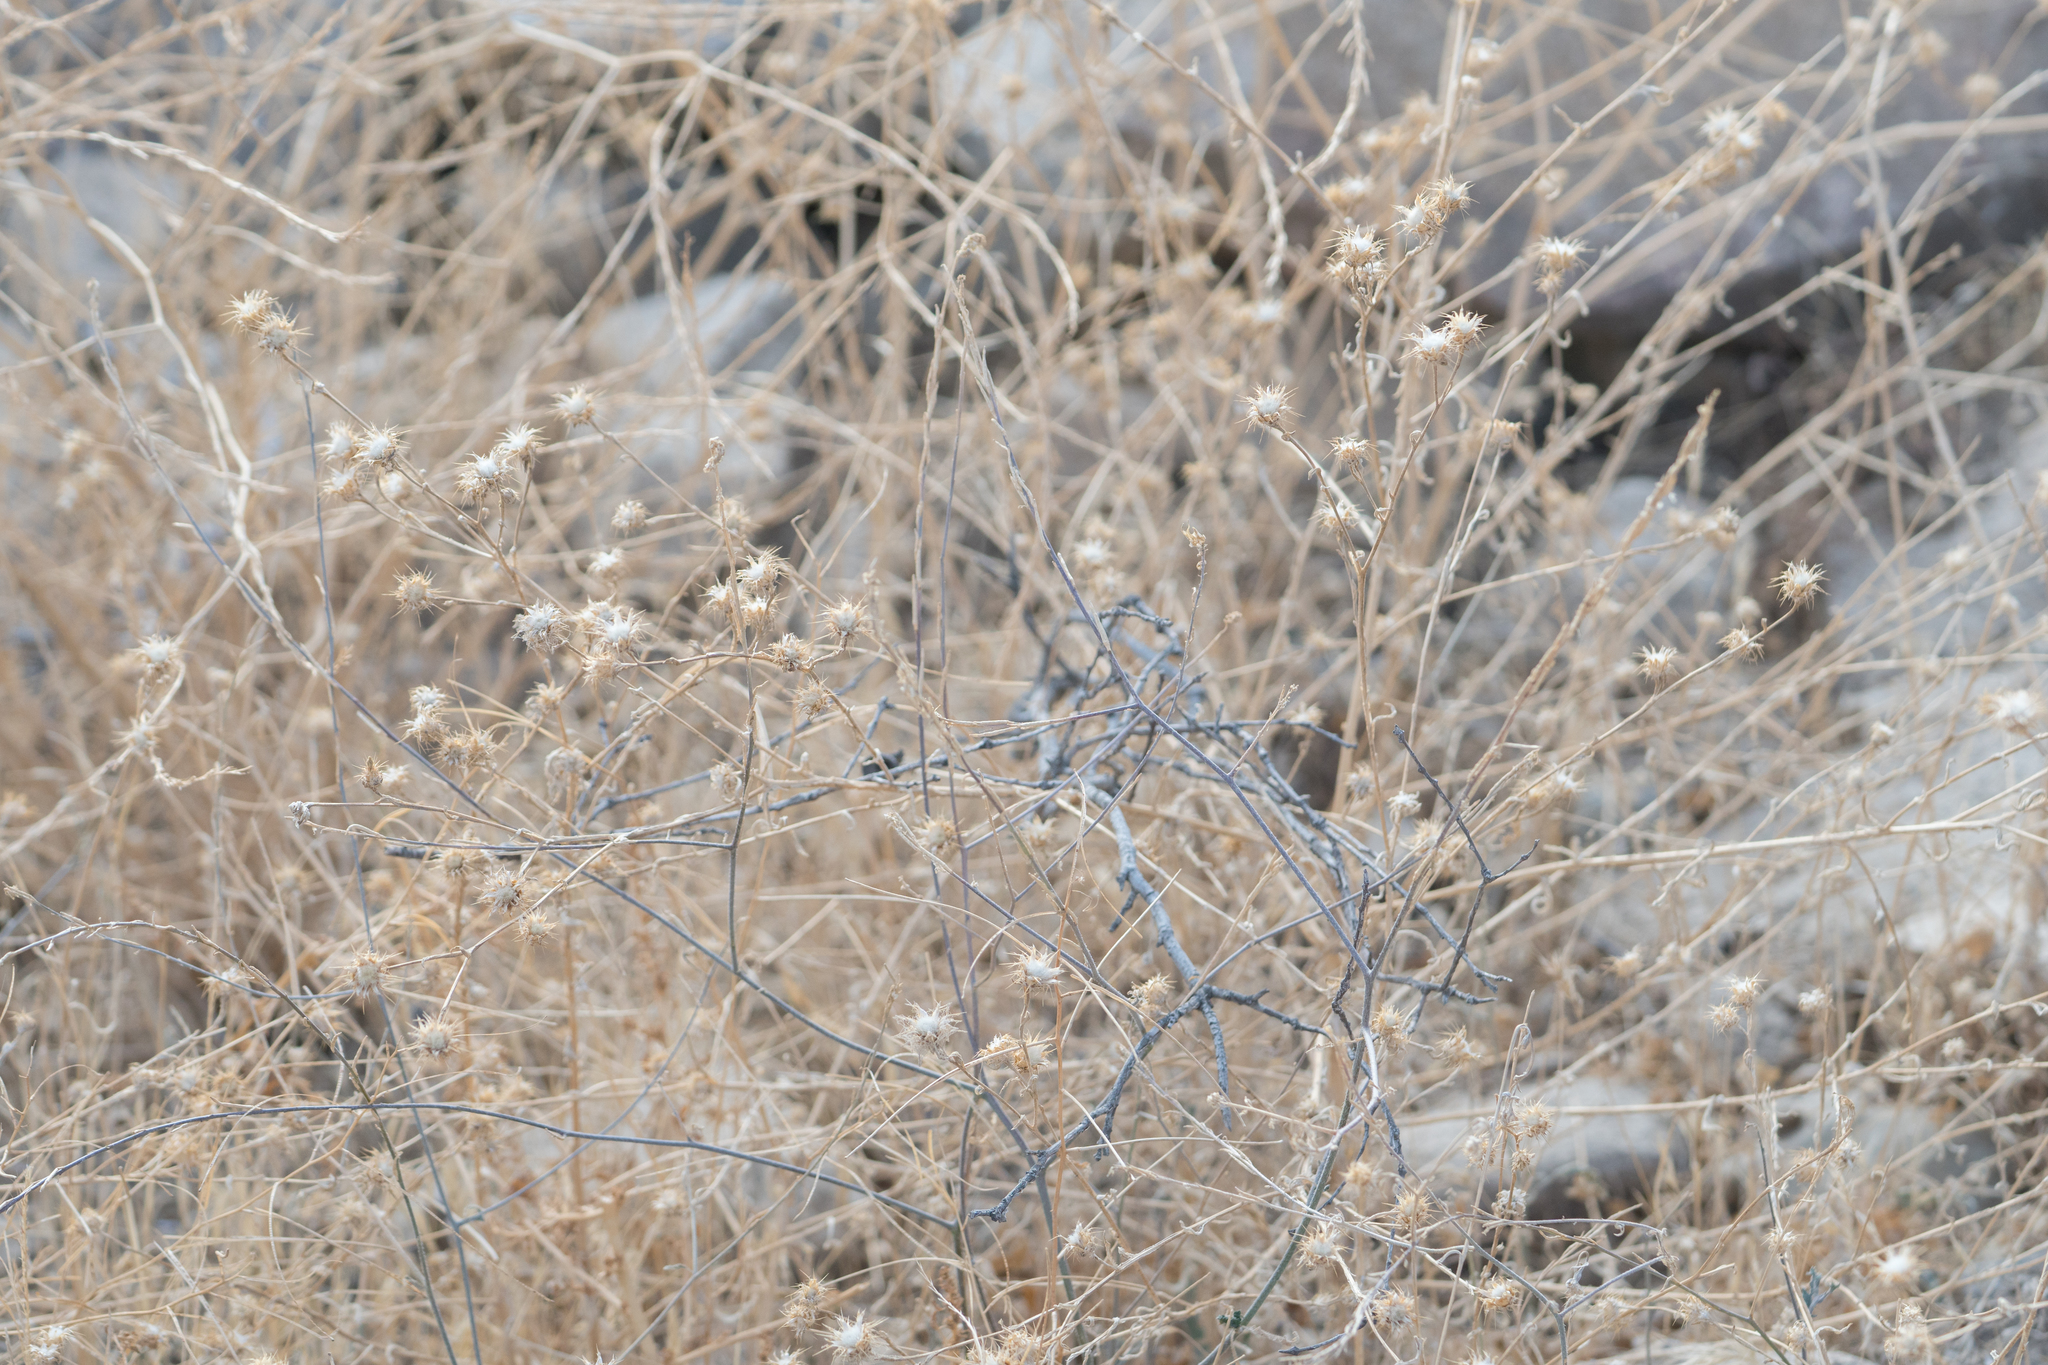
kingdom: Plantae
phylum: Tracheophyta
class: Magnoliopsida
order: Asterales
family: Asteraceae
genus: Centaurea
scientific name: Centaurea melitensis
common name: Maltese star-thistle
